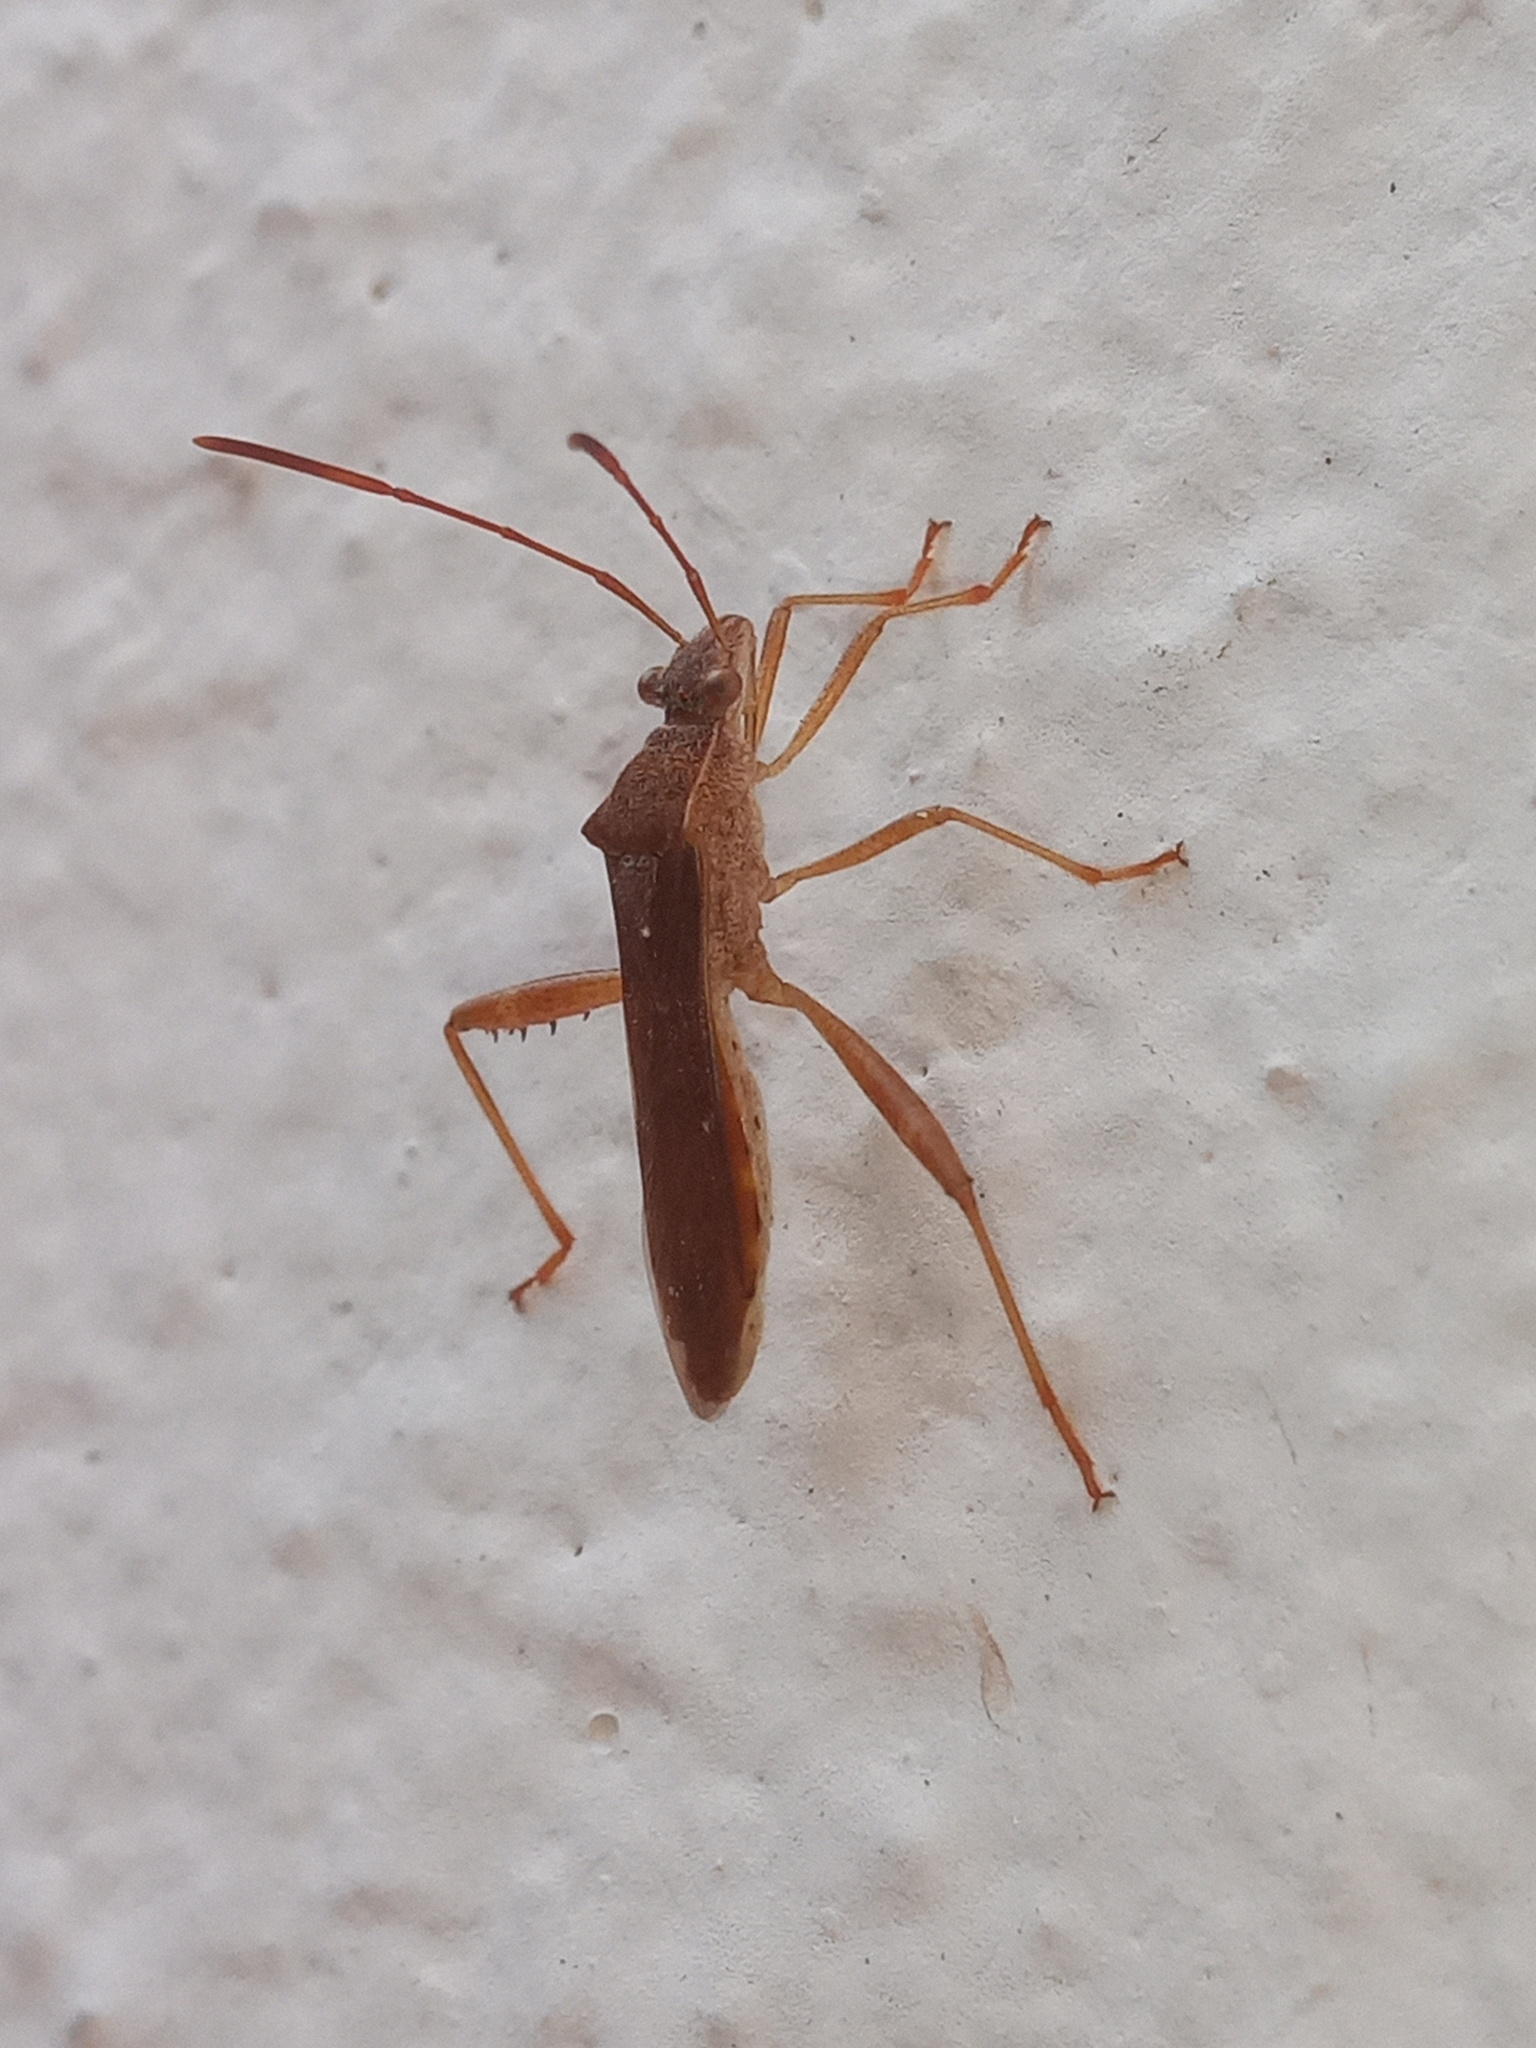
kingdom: Animalia
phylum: Arthropoda
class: Insecta
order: Hemiptera
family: Alydidae
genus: Burtinus
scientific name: Burtinus notatipennis
